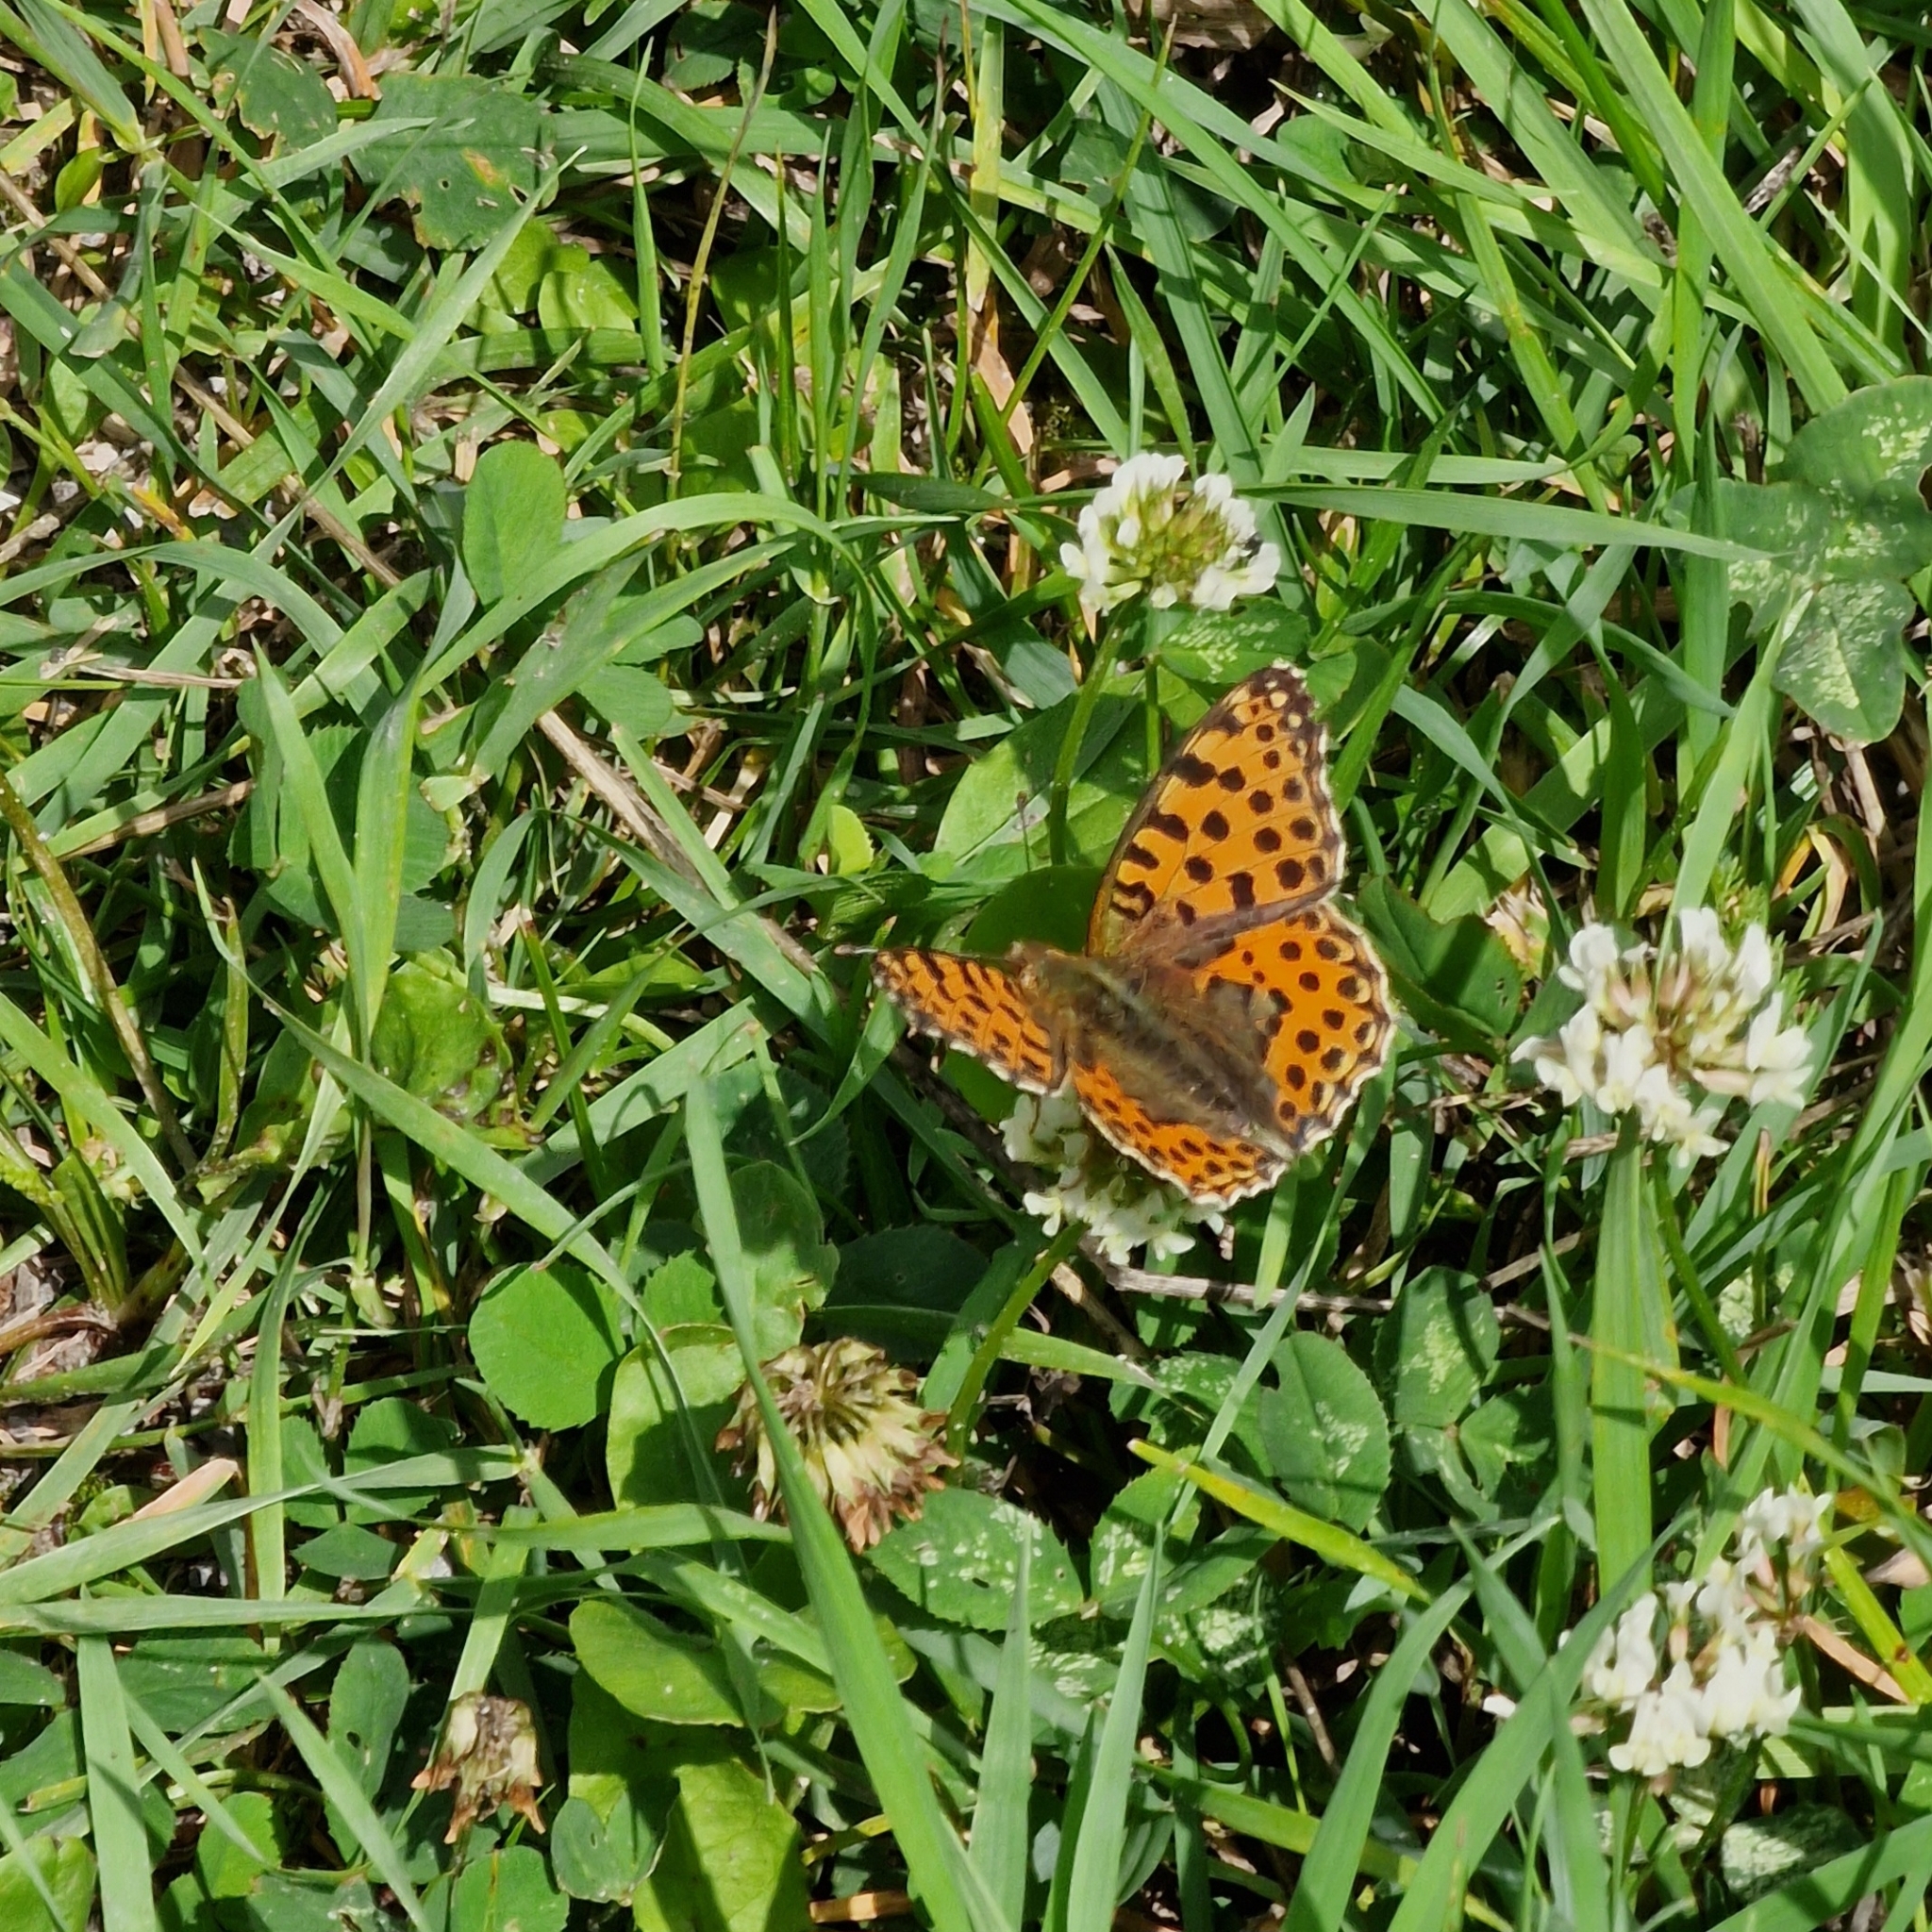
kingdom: Animalia
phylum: Arthropoda
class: Insecta
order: Lepidoptera
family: Nymphalidae
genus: Issoria
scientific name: Issoria lathonia
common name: Queen of spain fritillary
